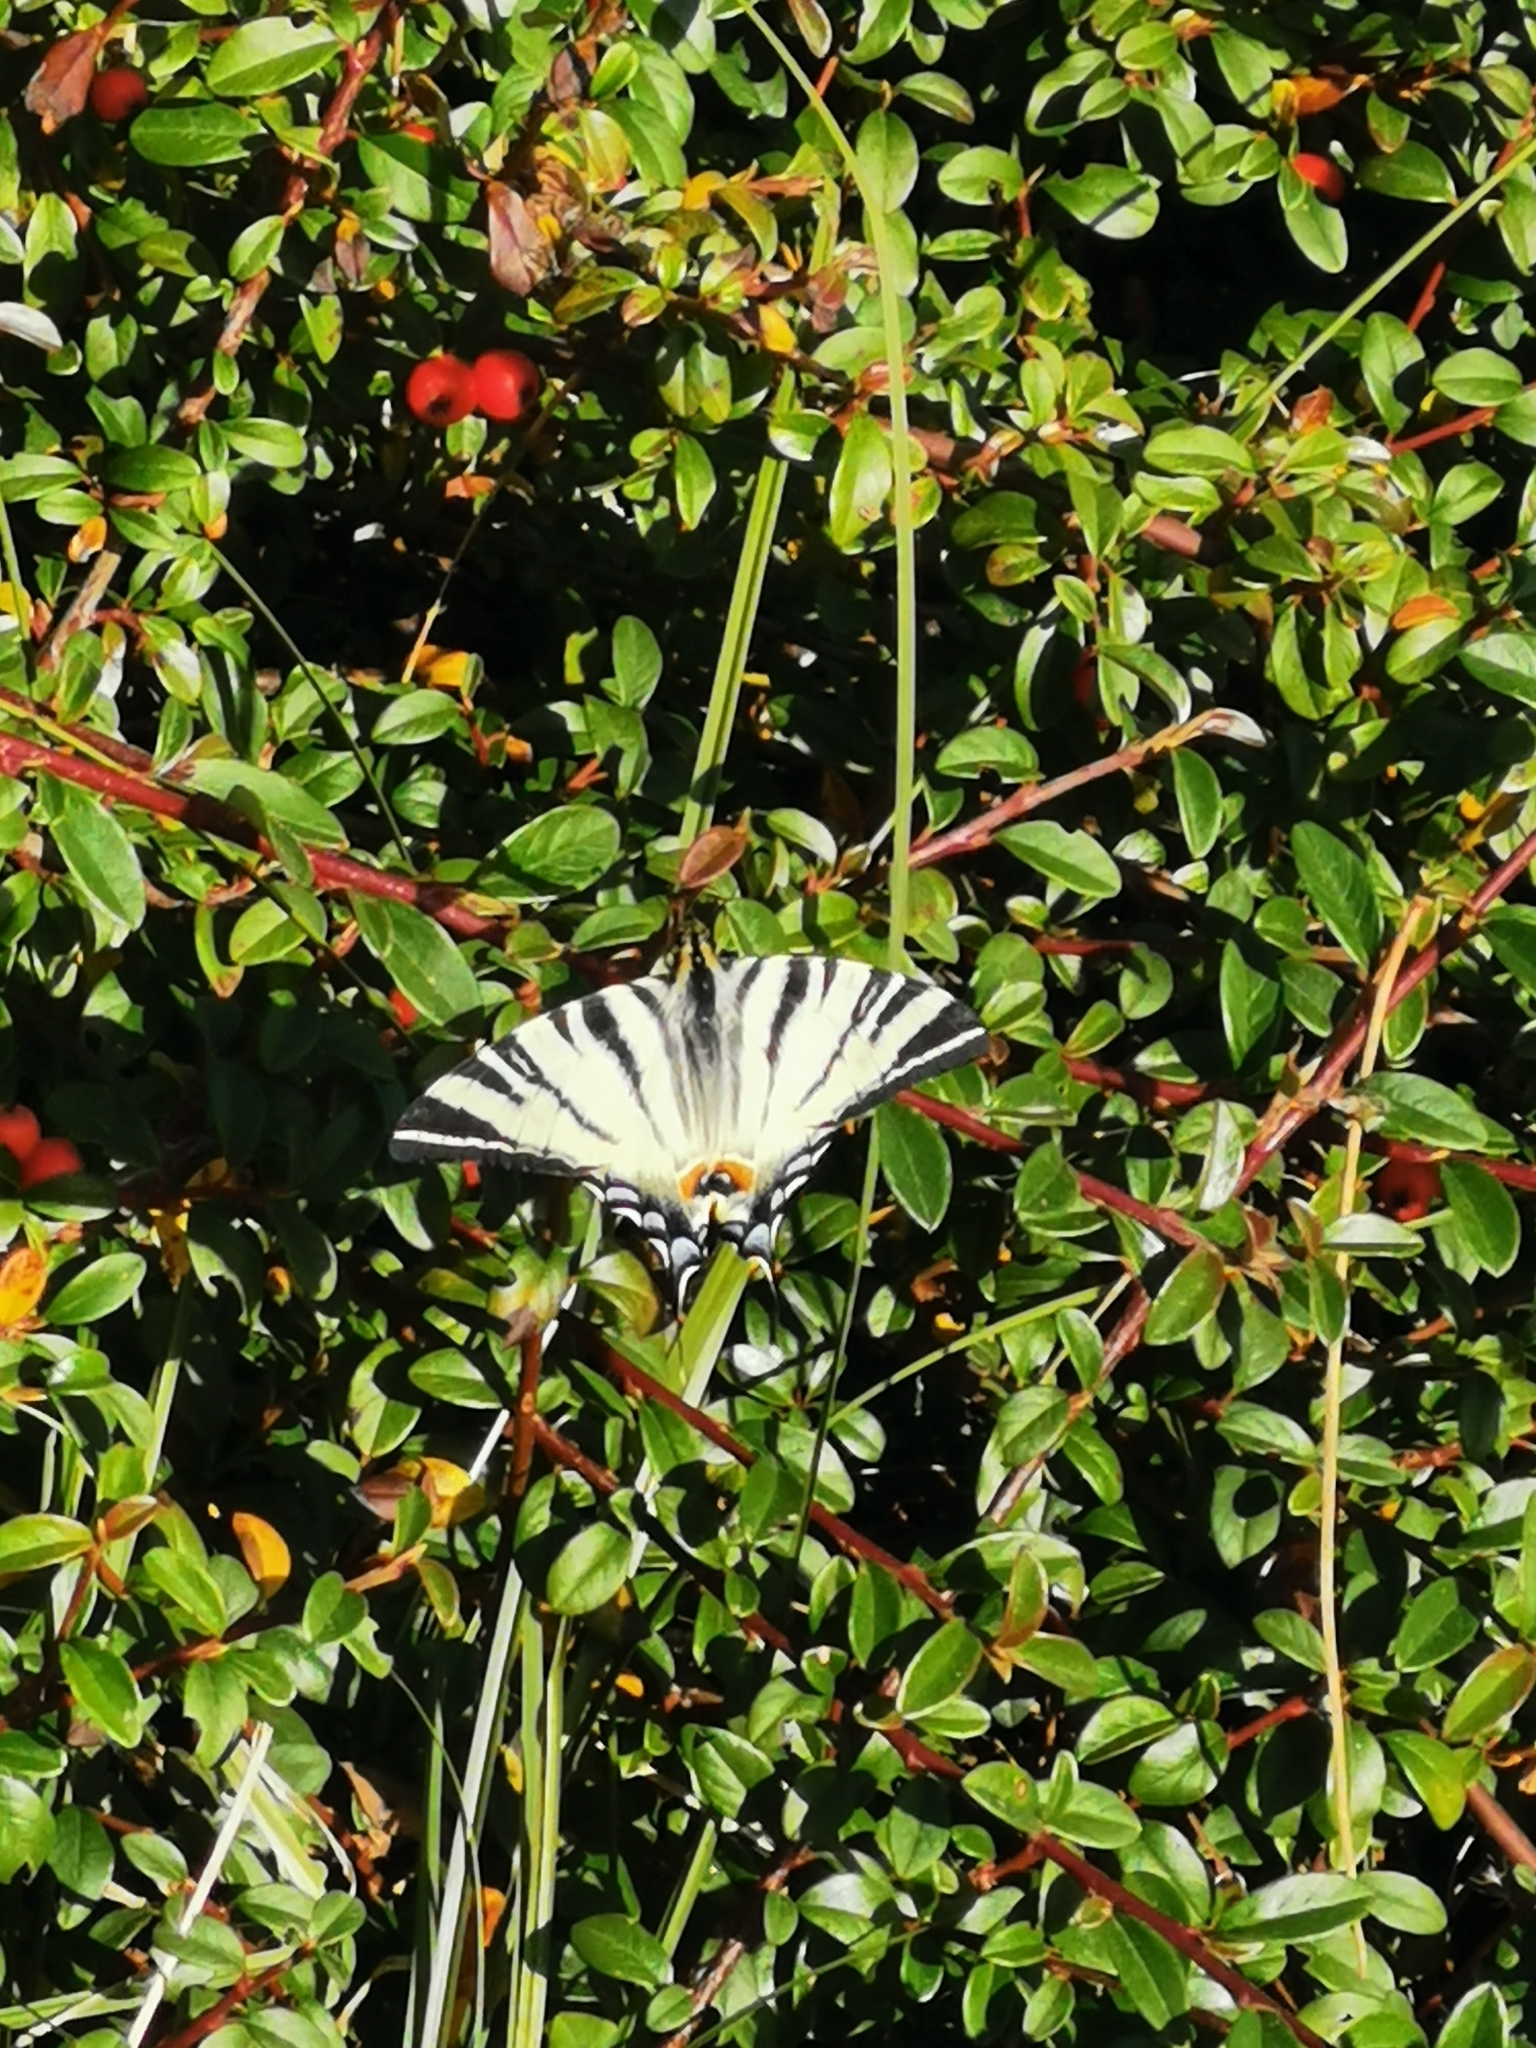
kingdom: Animalia
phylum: Arthropoda
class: Insecta
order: Lepidoptera
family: Papilionidae
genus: Iphiclides
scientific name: Iphiclides podalirius
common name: Scarce swallowtail
